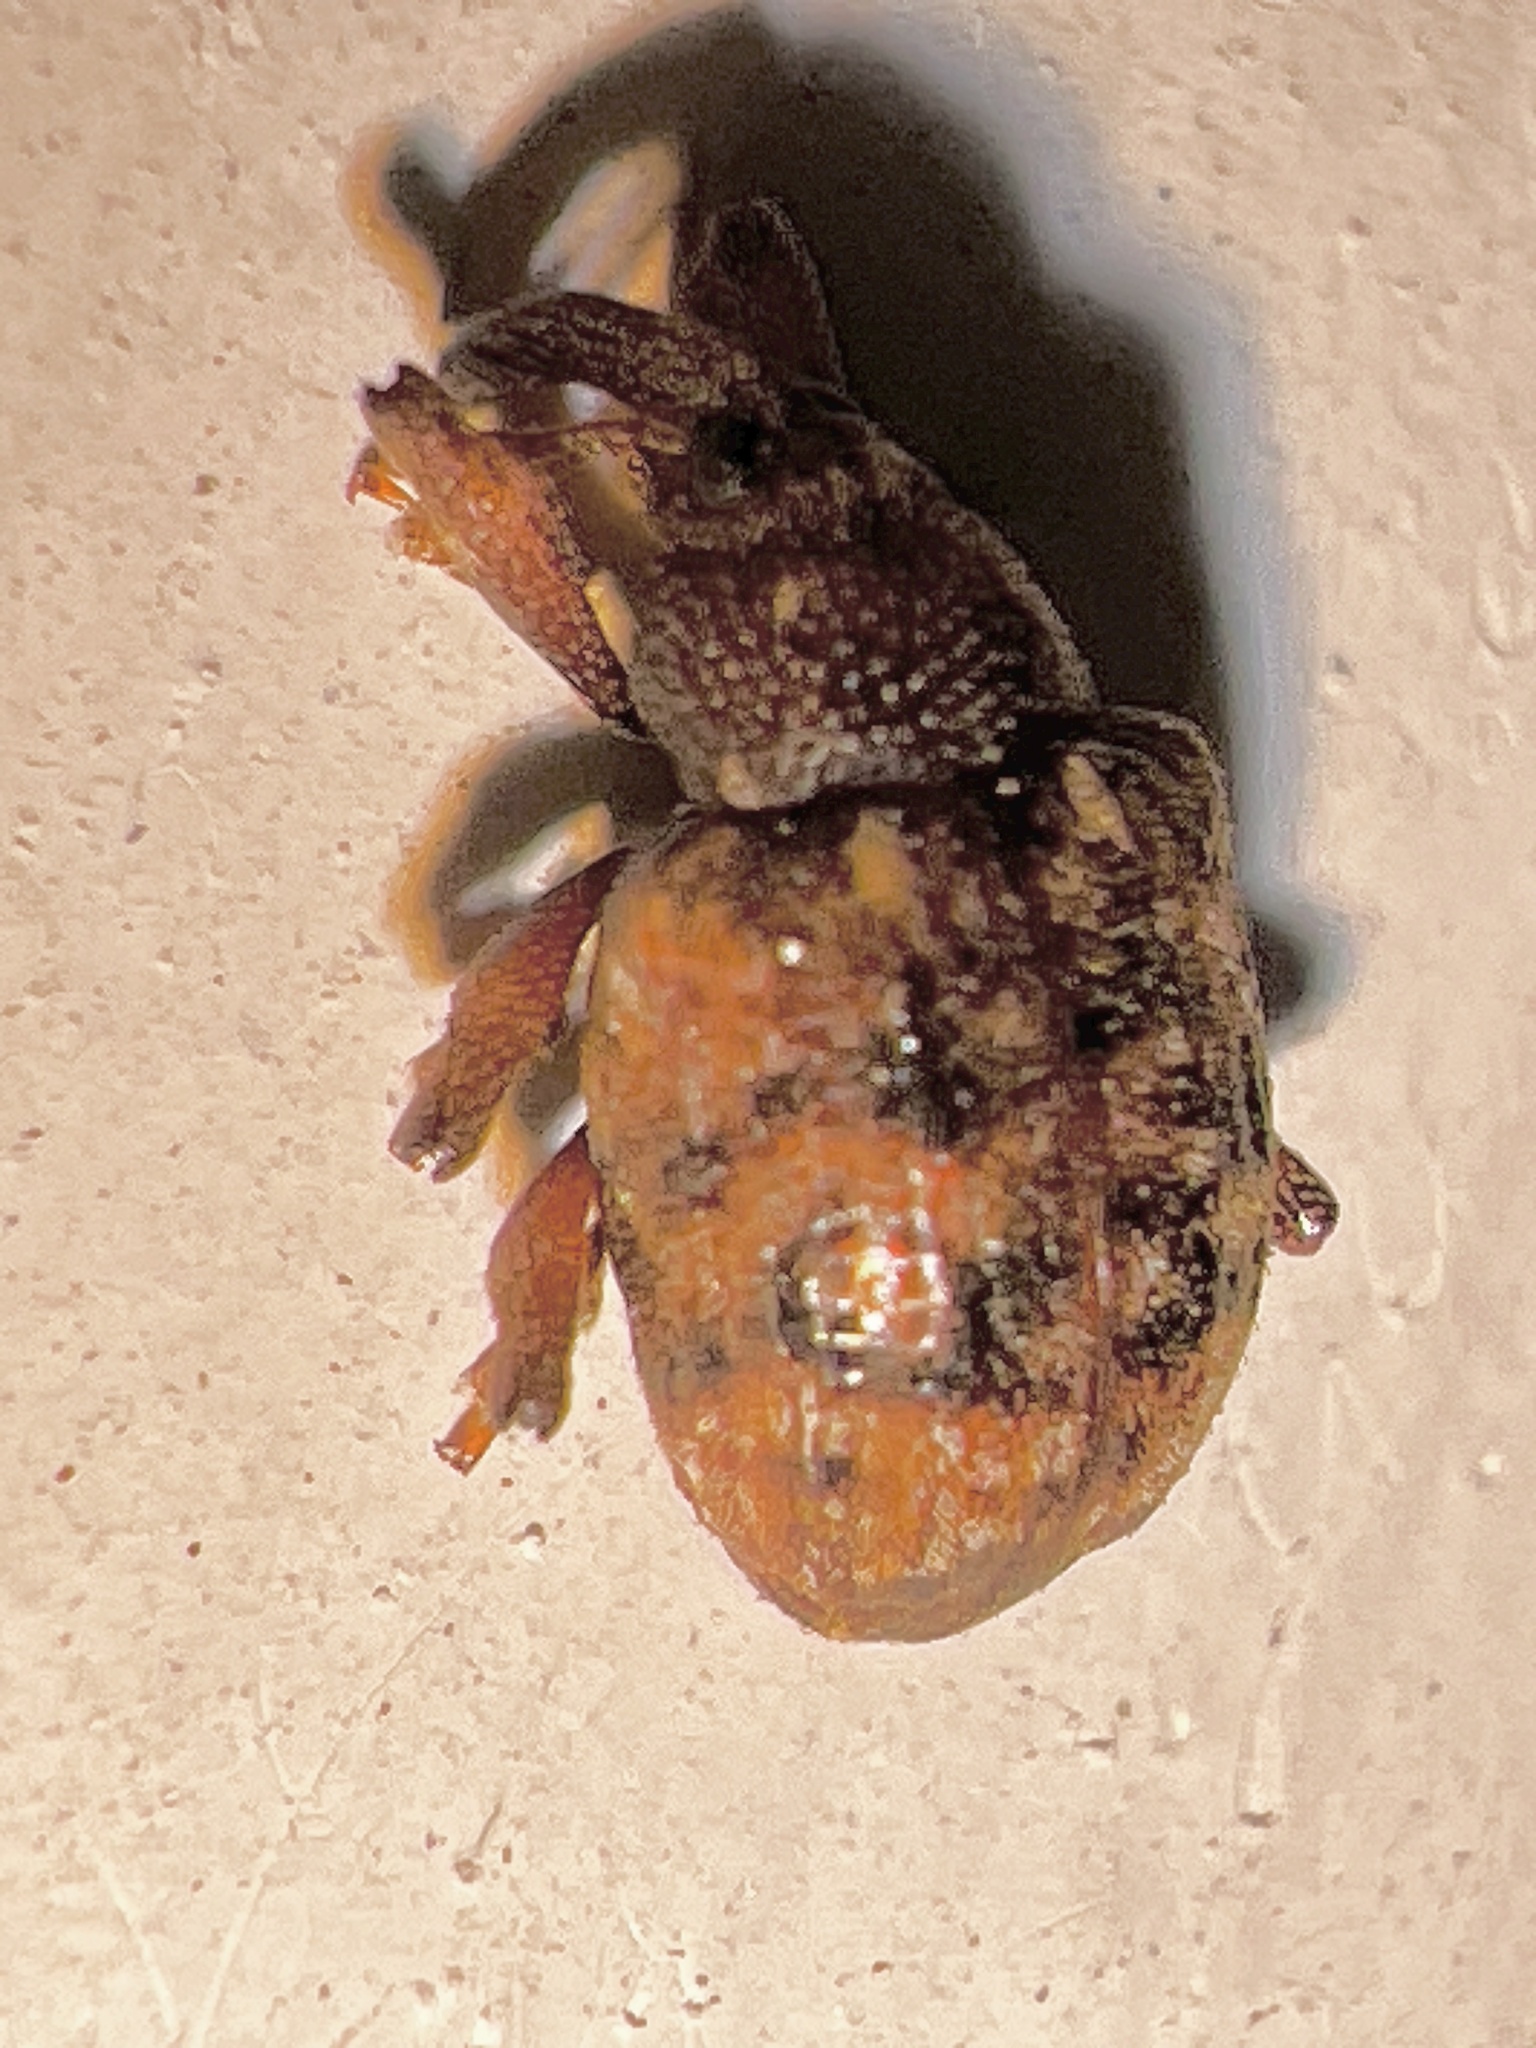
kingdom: Animalia
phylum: Arthropoda
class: Insecta
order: Coleoptera
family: Curculionidae
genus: Conotrachelus
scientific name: Conotrachelus fissunguis
